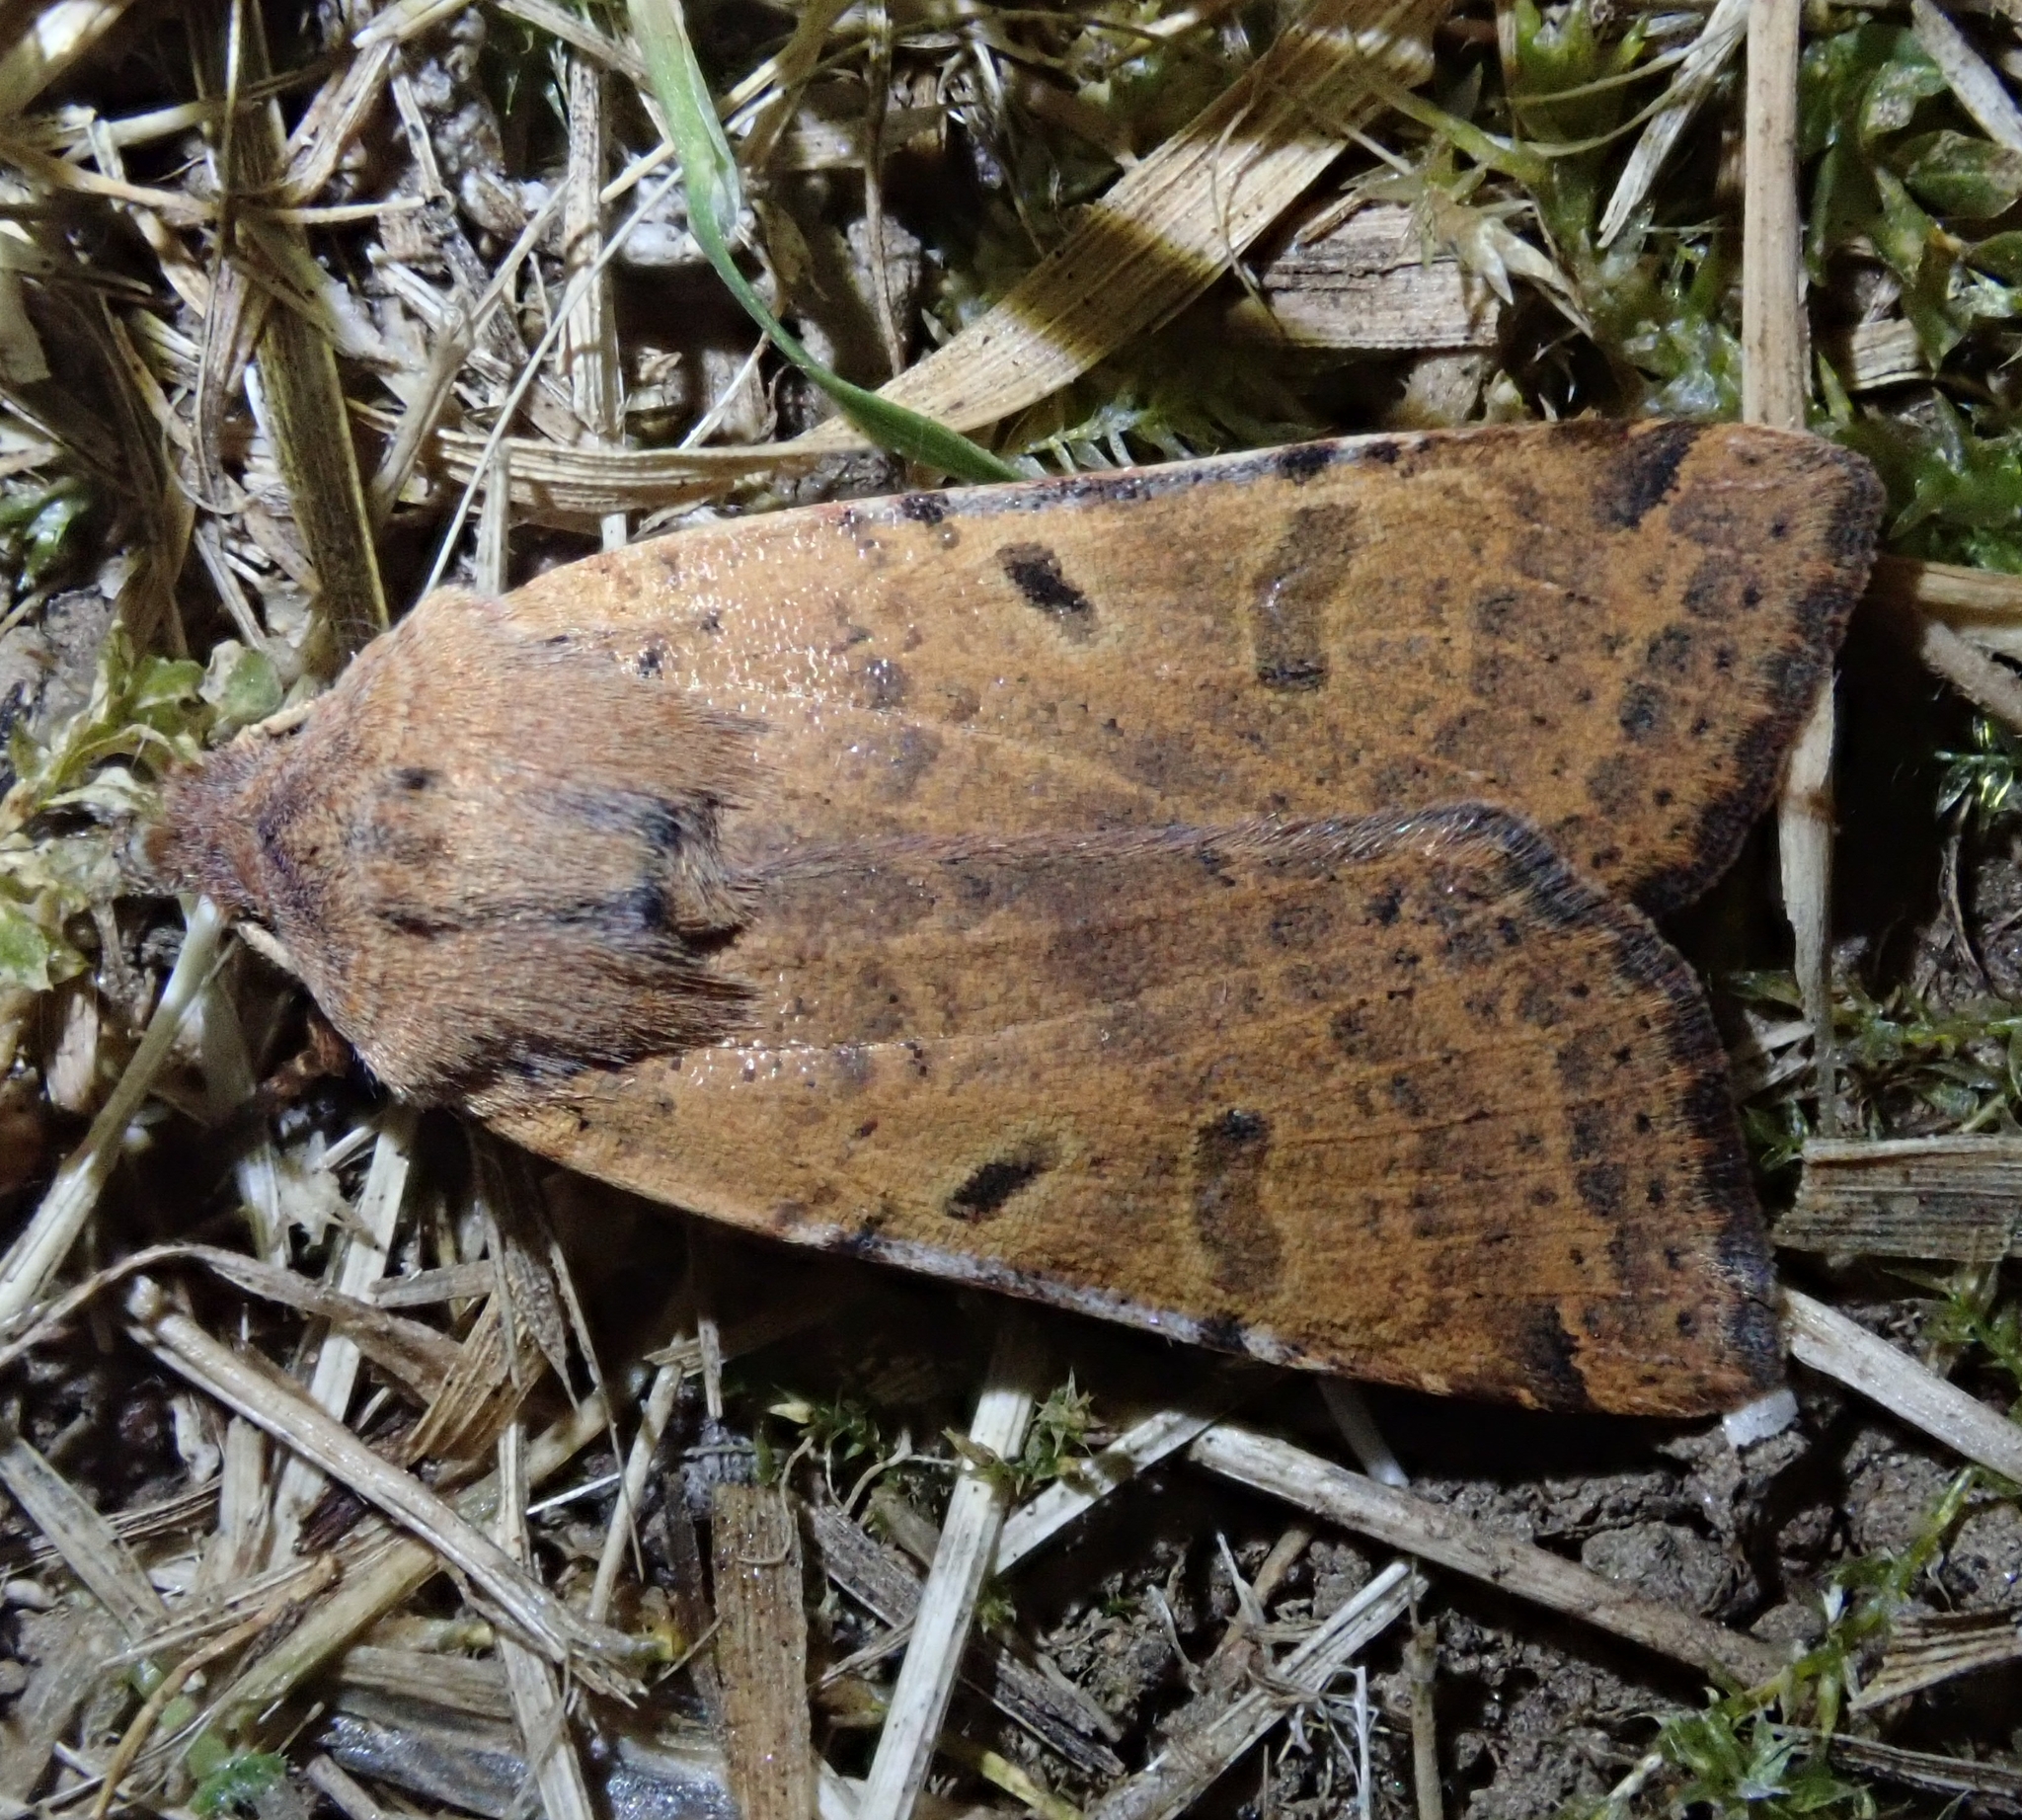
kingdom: Animalia
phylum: Arthropoda
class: Insecta
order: Lepidoptera
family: Noctuidae
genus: Agrochola
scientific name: Agrochola lychnidis
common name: Beaded chestnut
